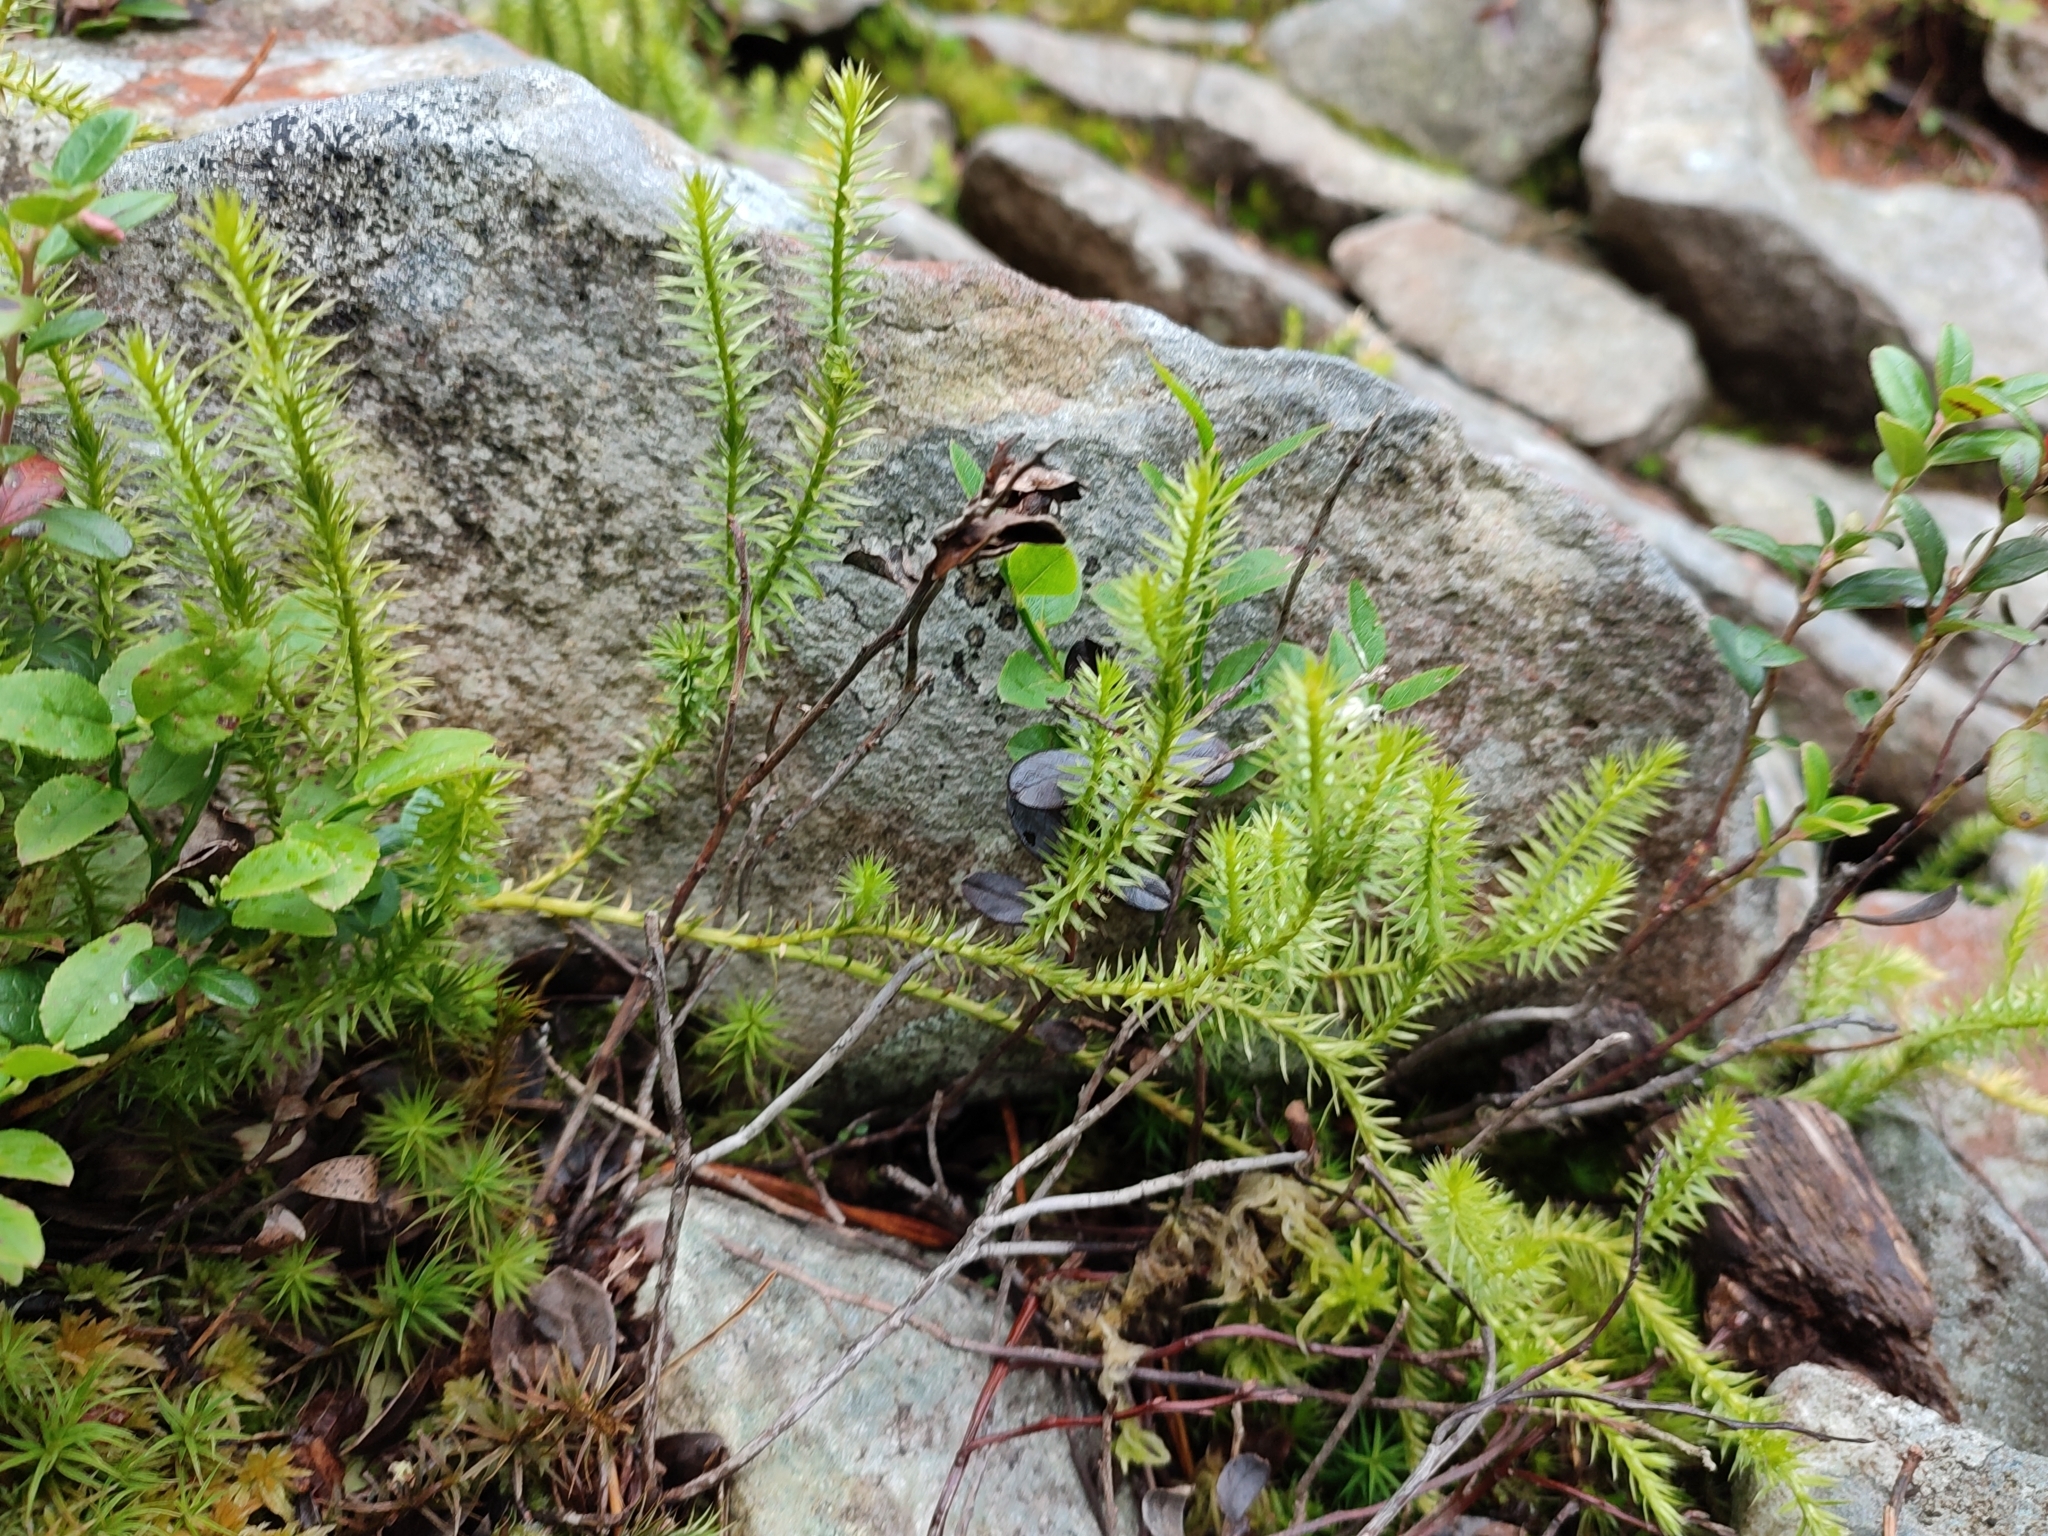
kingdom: Plantae
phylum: Tracheophyta
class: Lycopodiopsida
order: Lycopodiales
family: Lycopodiaceae
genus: Spinulum
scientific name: Spinulum annotinum
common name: Interrupted club-moss
